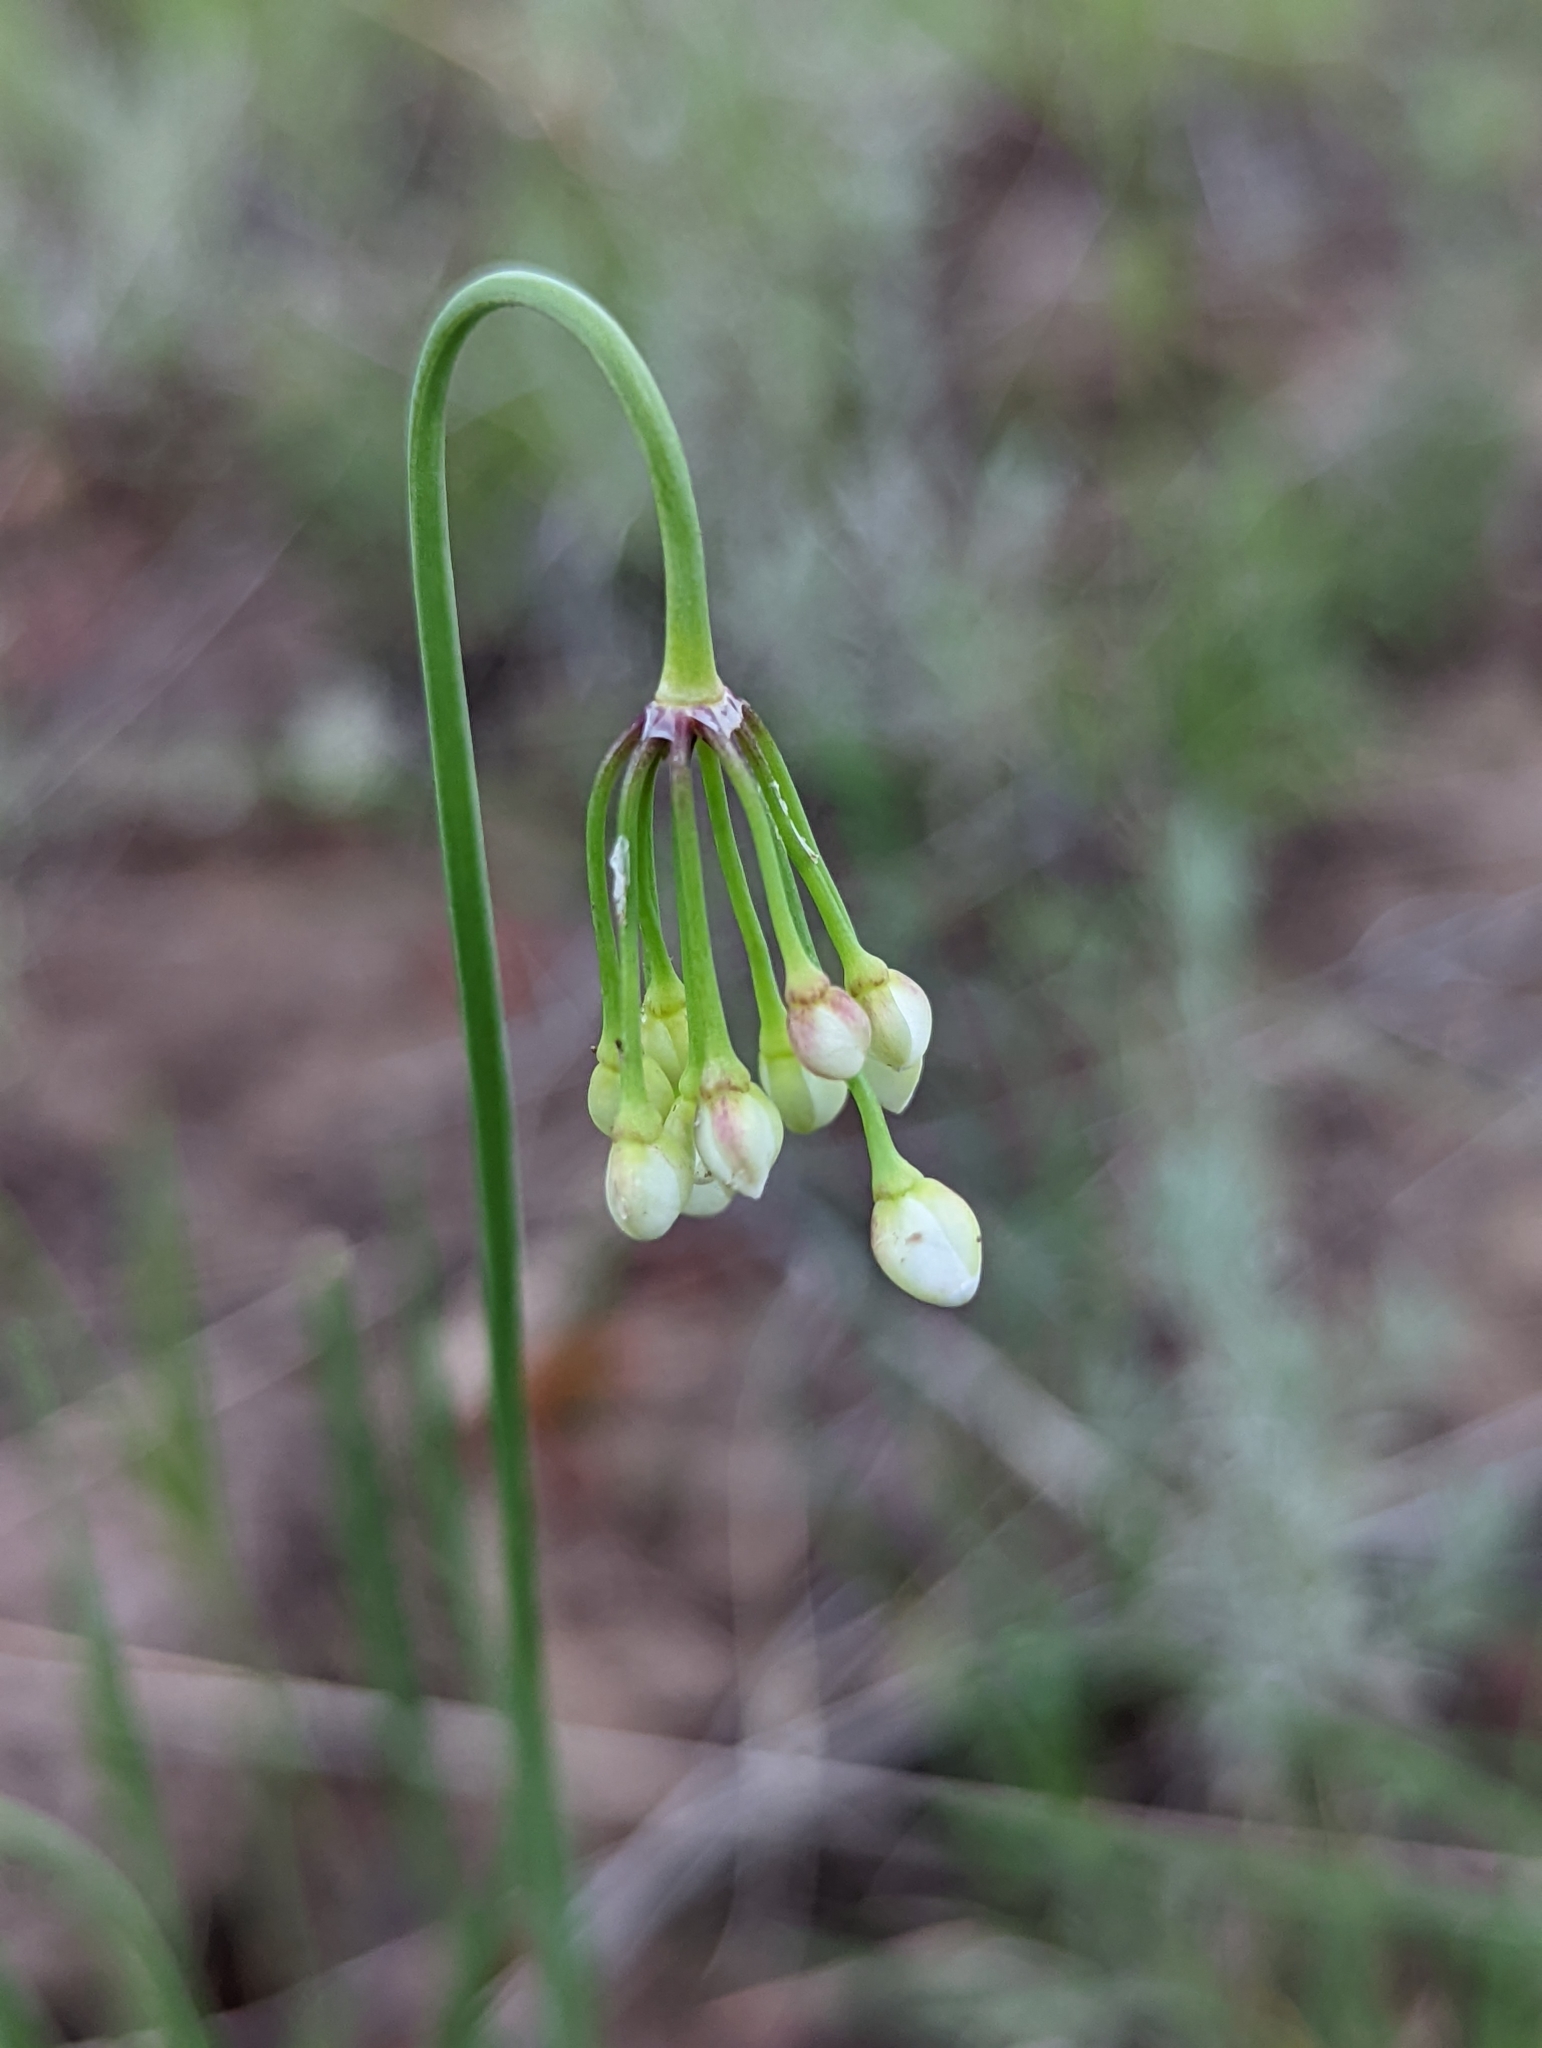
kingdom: Plantae
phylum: Tracheophyta
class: Liliopsida
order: Asparagales
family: Amaryllidaceae
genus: Allium
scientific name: Allium cernuum
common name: Nodding onion
